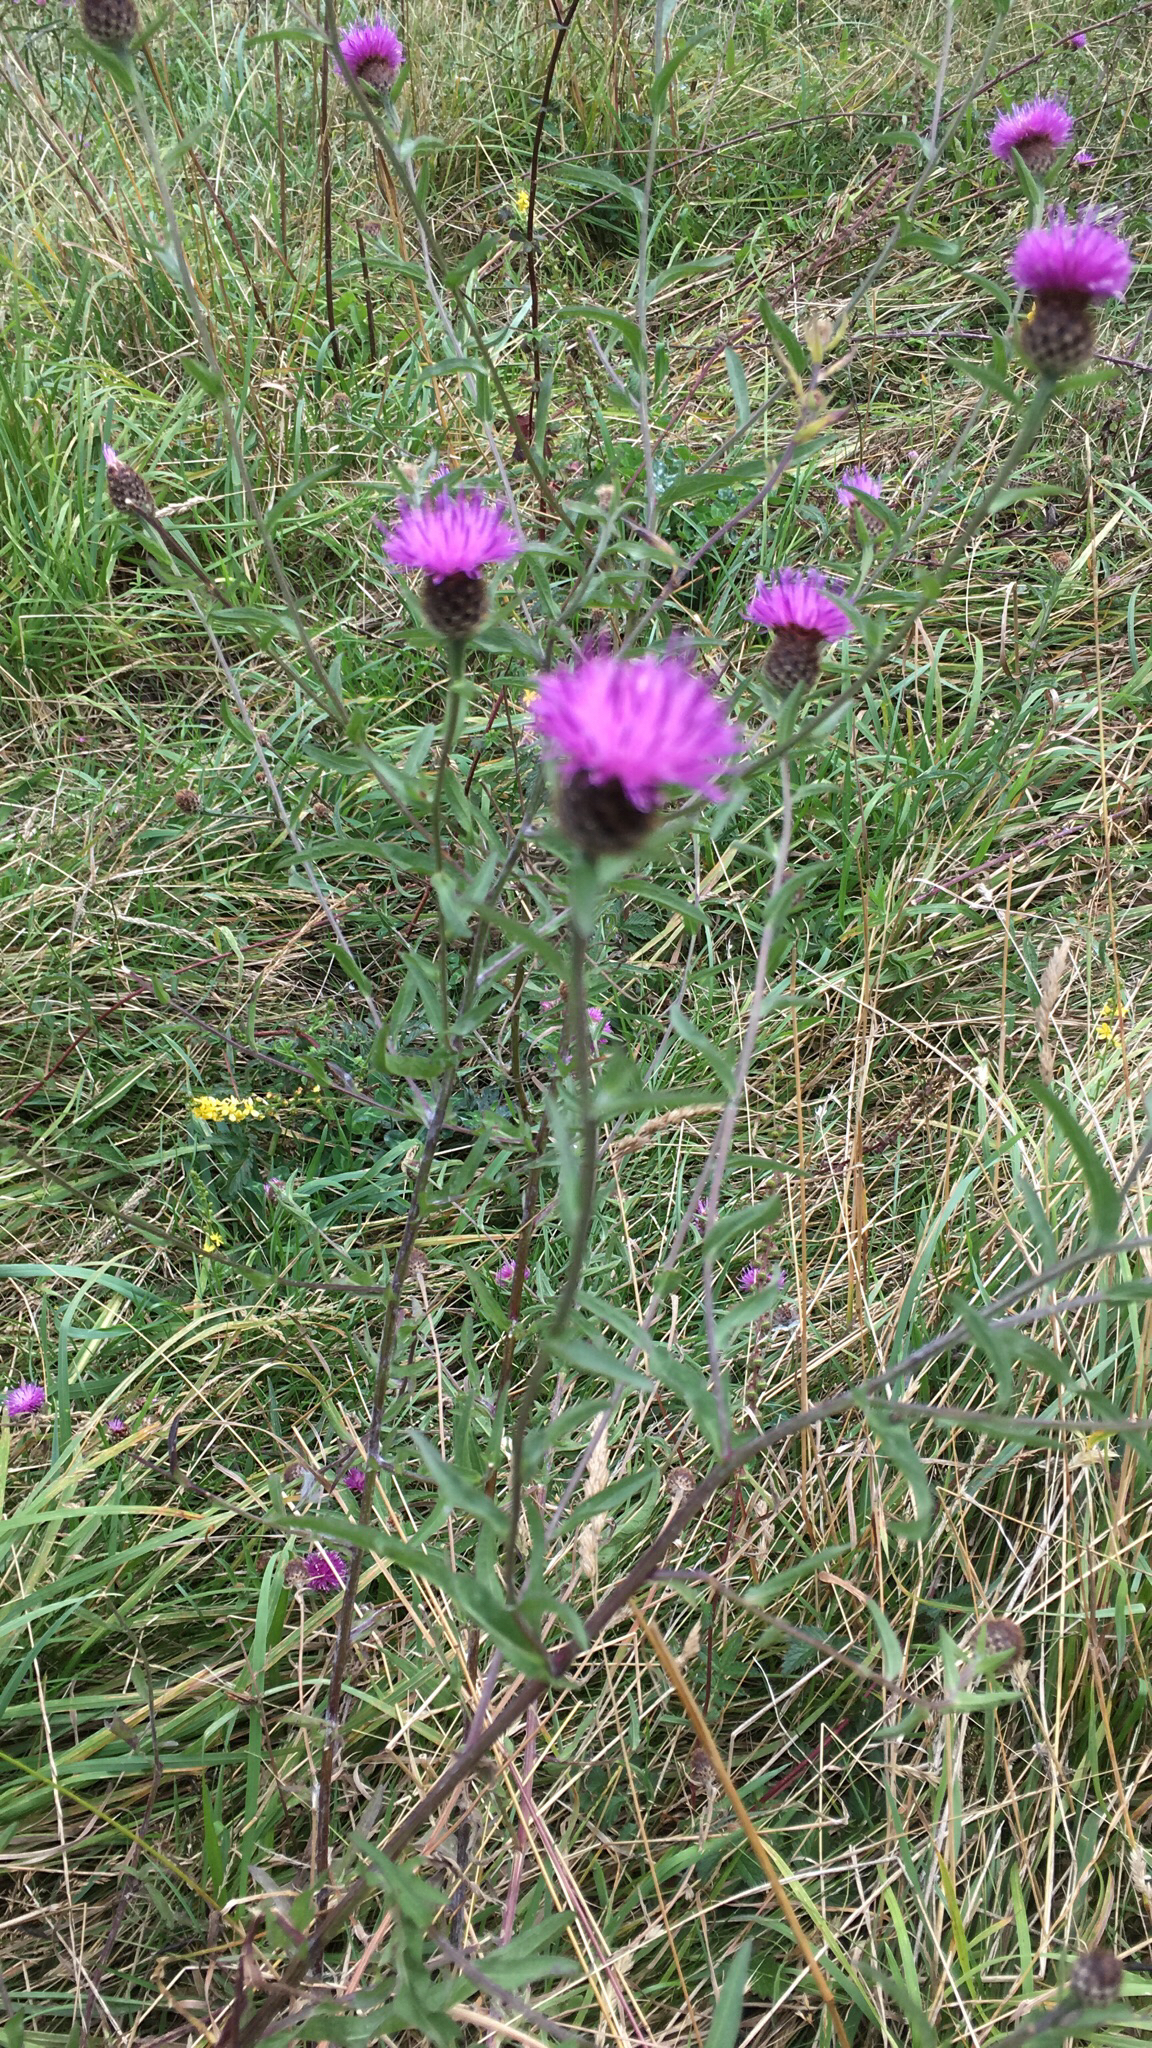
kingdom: Plantae
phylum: Tracheophyta
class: Magnoliopsida
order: Asterales
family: Asteraceae
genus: Centaurea
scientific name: Centaurea nigra
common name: Lesser knapweed
